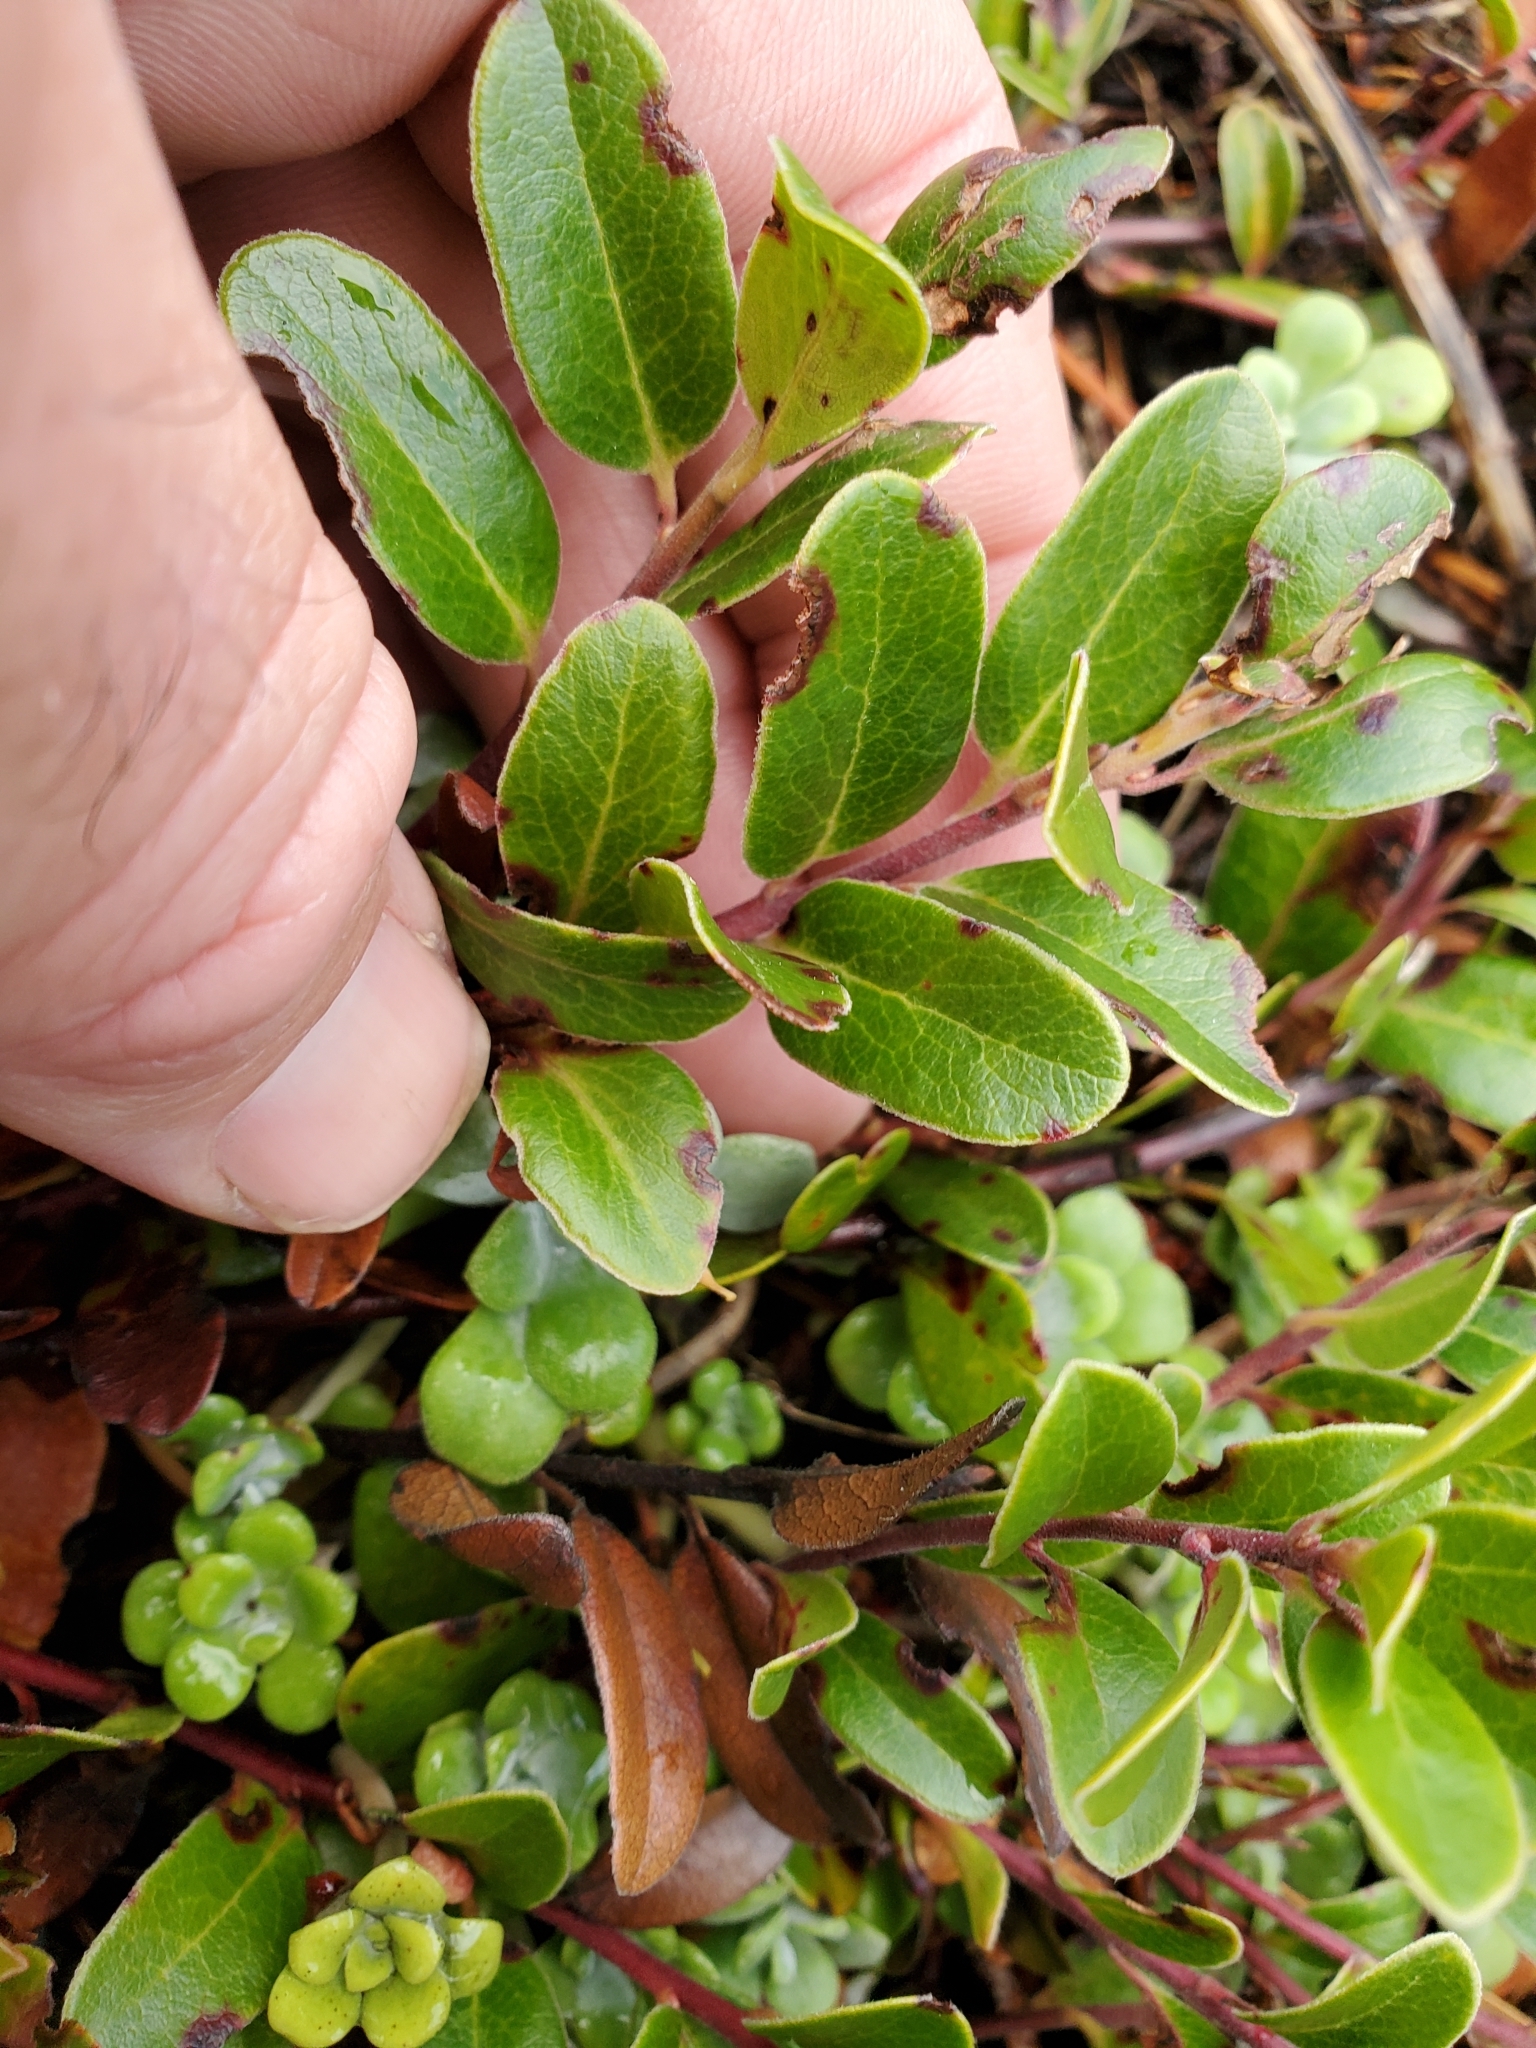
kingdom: Plantae
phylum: Tracheophyta
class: Magnoliopsida
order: Ericales
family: Ericaceae
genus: Arctostaphylos
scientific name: Arctostaphylos uva-ursi
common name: Bearberry
